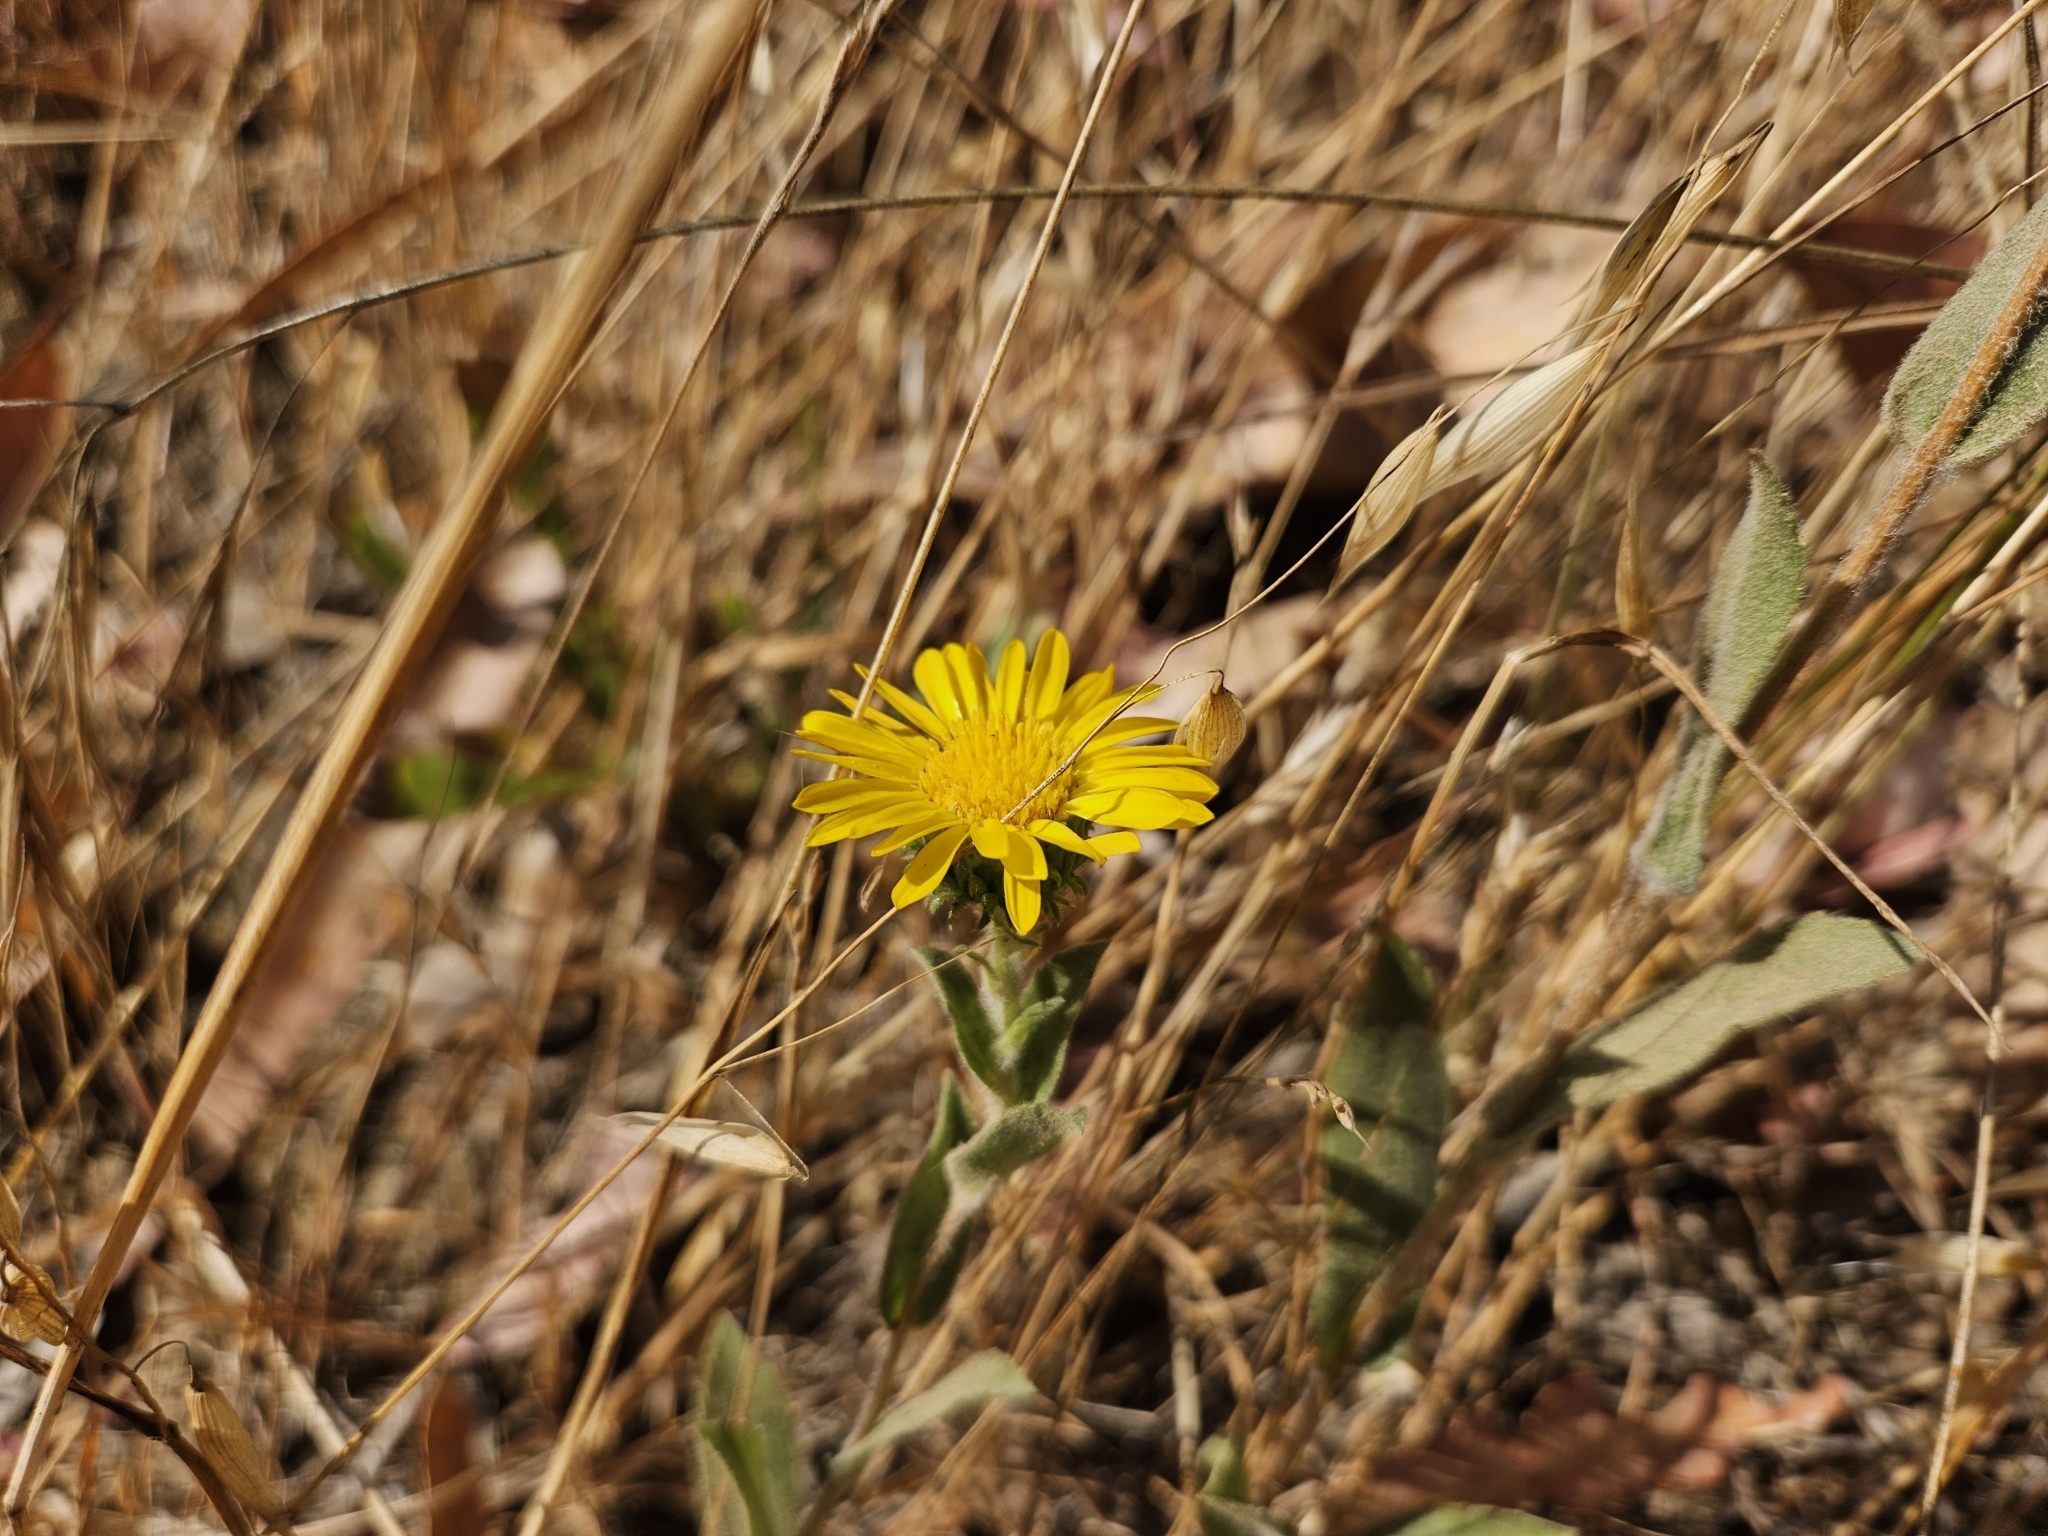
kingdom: Plantae
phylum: Tracheophyta
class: Magnoliopsida
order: Asterales
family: Asteraceae
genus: Grindelia
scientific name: Grindelia hirsutula
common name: Hairy gumweed
